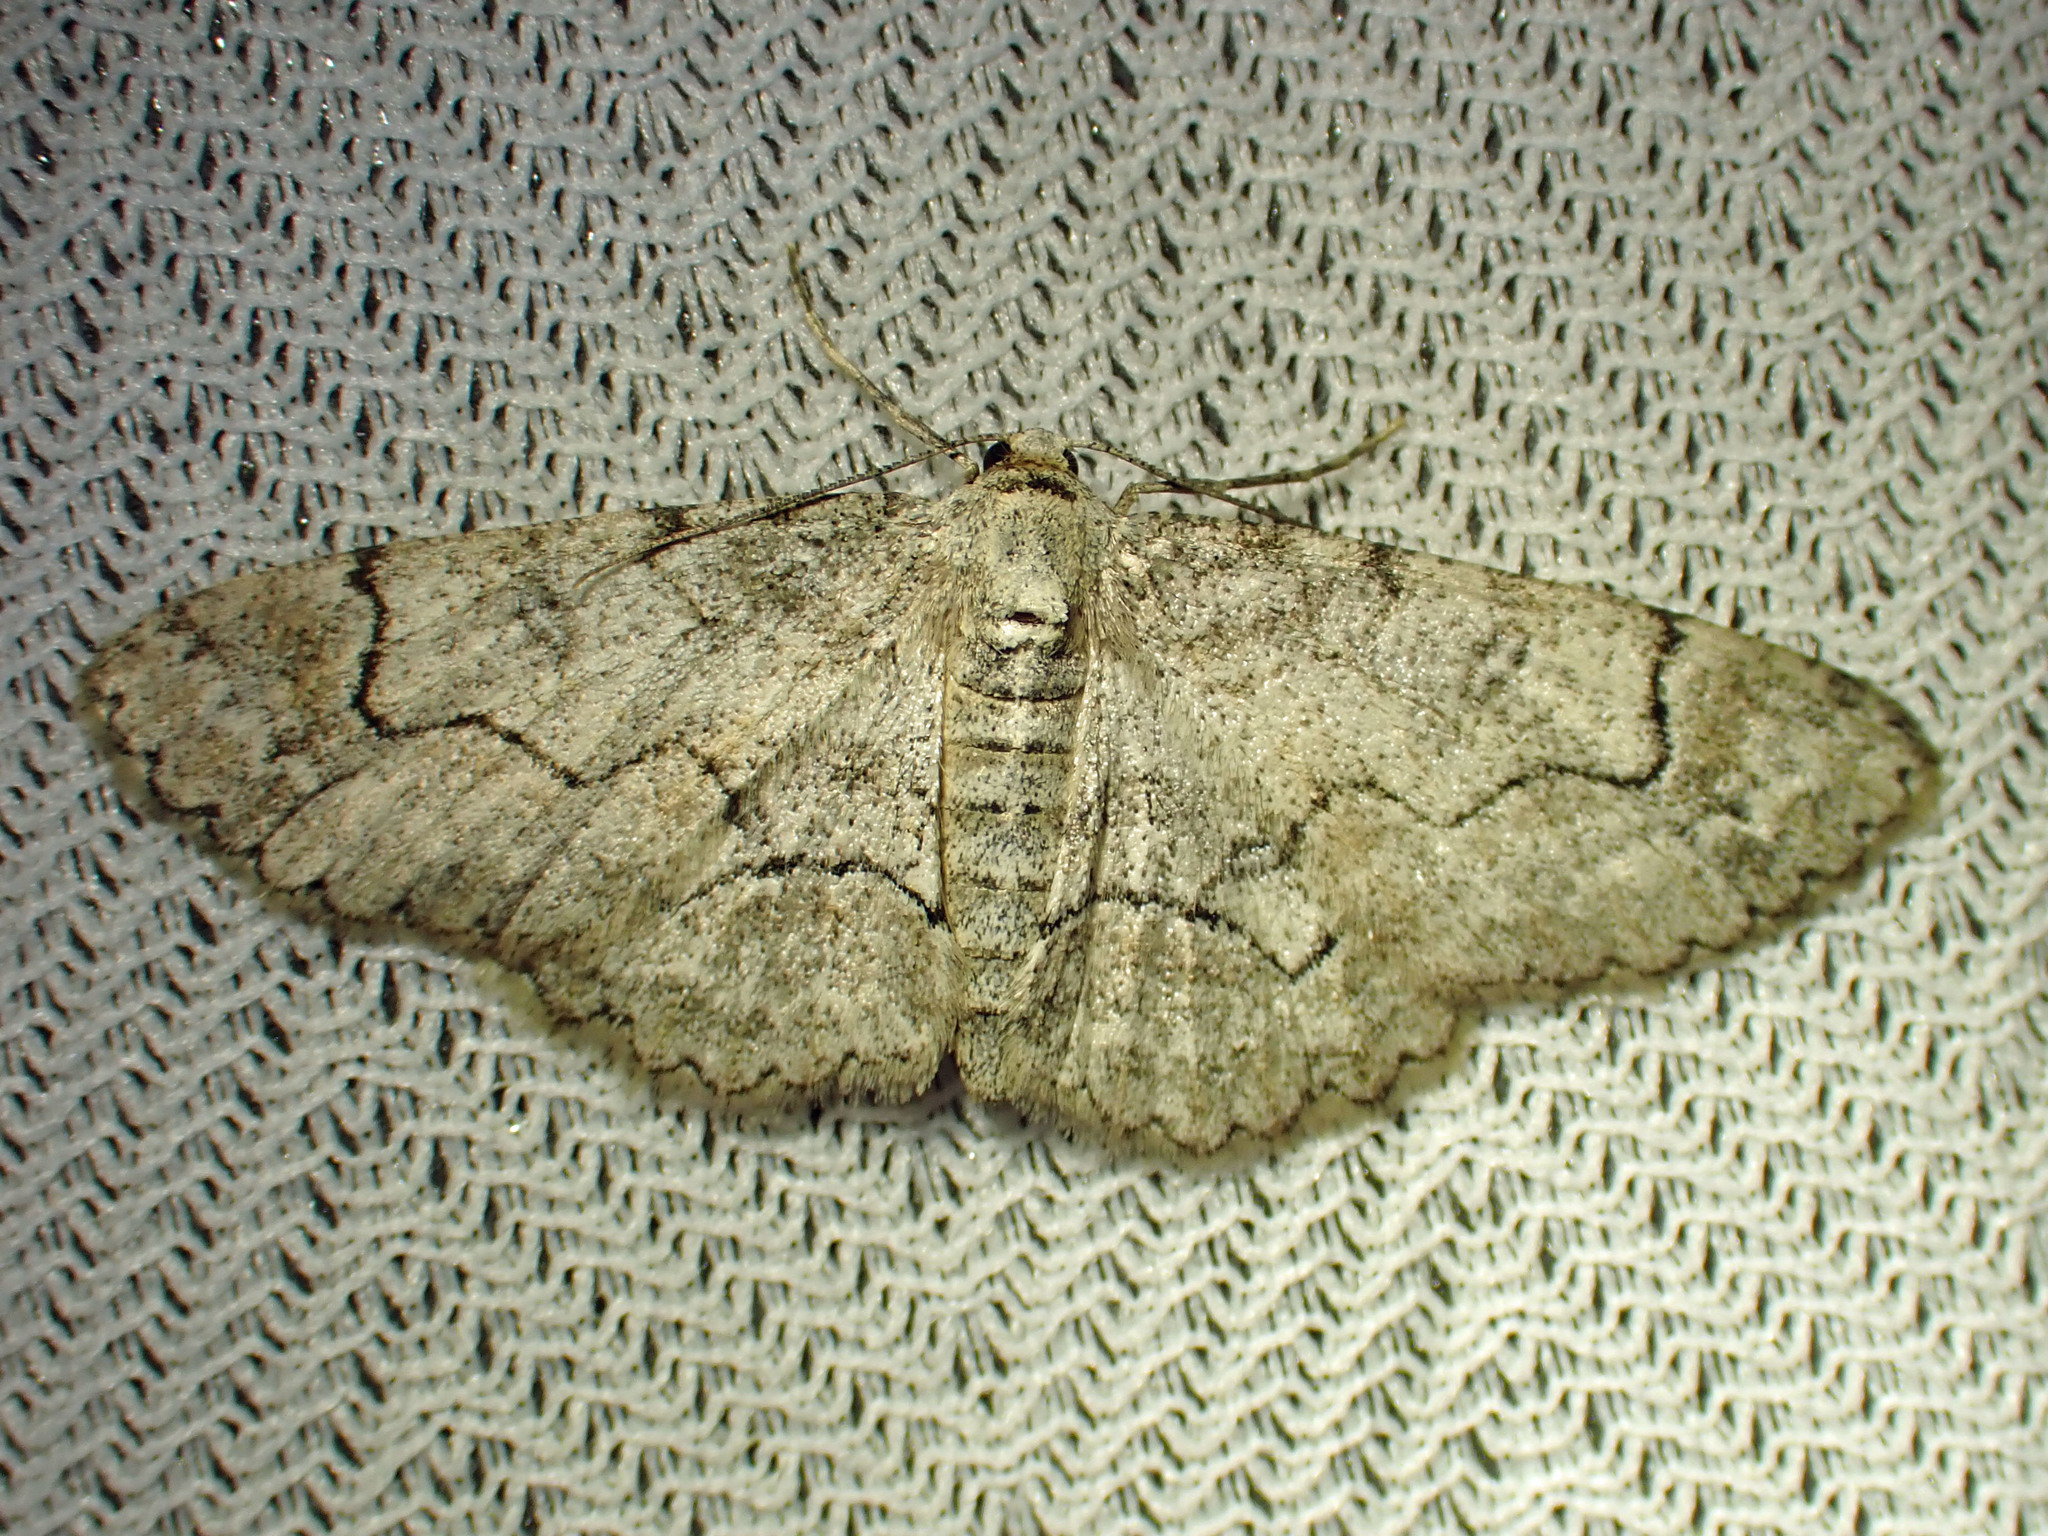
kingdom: Animalia
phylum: Arthropoda
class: Insecta
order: Lepidoptera
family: Geometridae
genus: Iridopsis
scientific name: Iridopsis larvaria
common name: Bent-line gray
